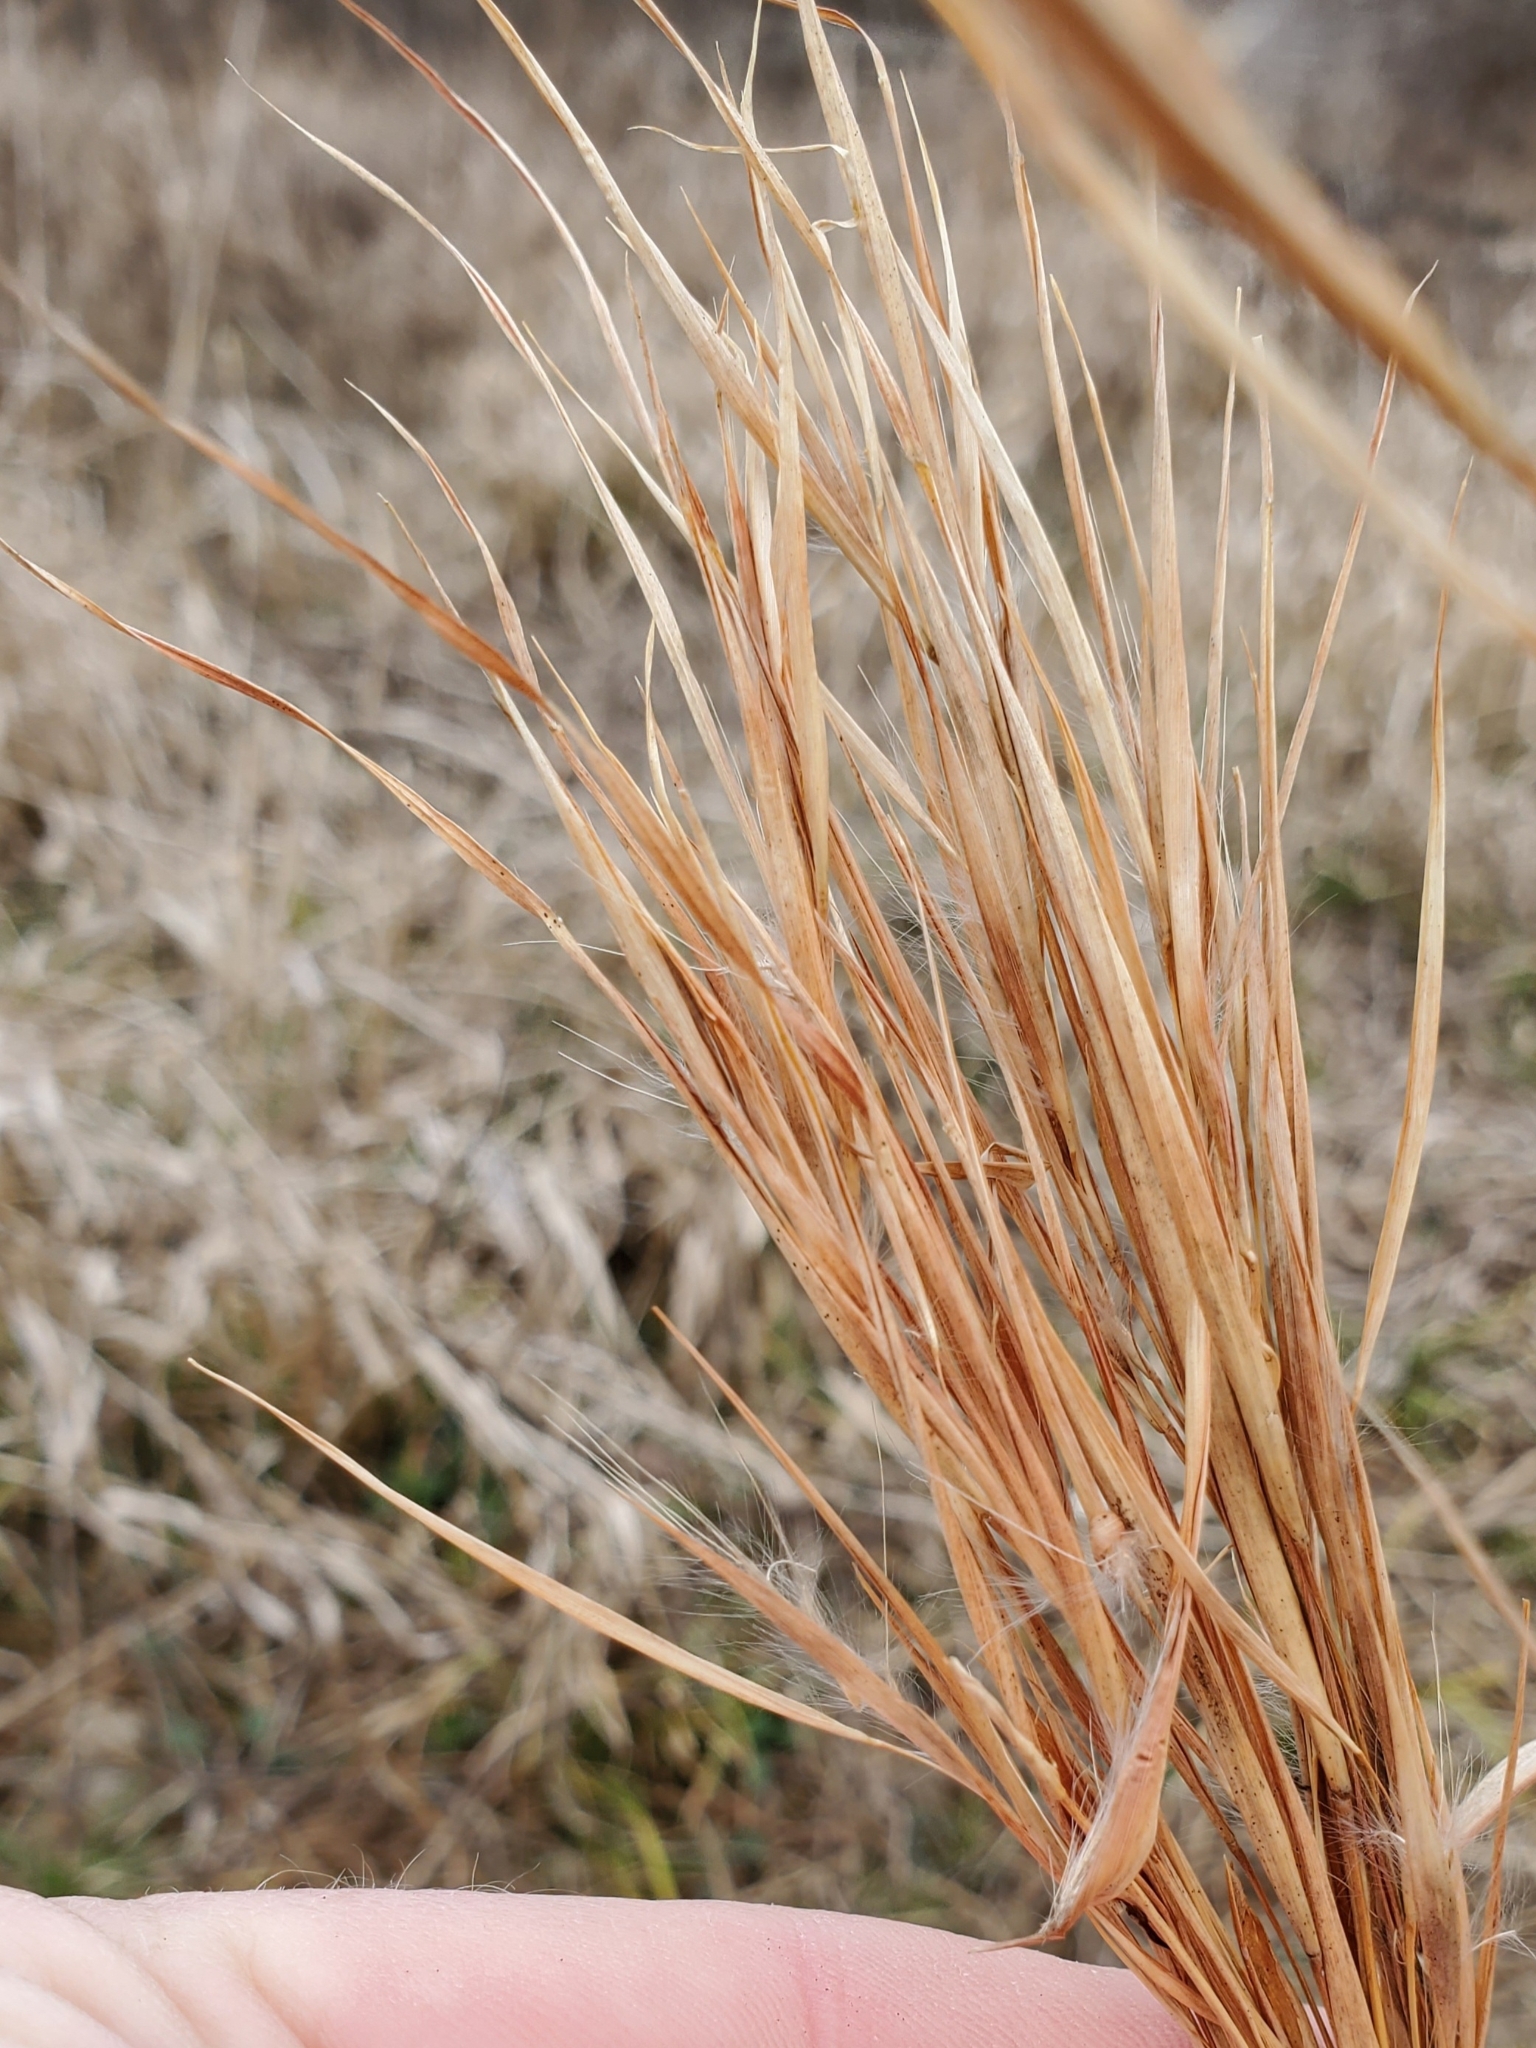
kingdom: Plantae
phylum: Tracheophyta
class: Liliopsida
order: Poales
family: Poaceae
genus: Andropogon
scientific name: Andropogon virginicus
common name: Broomsedge bluestem
